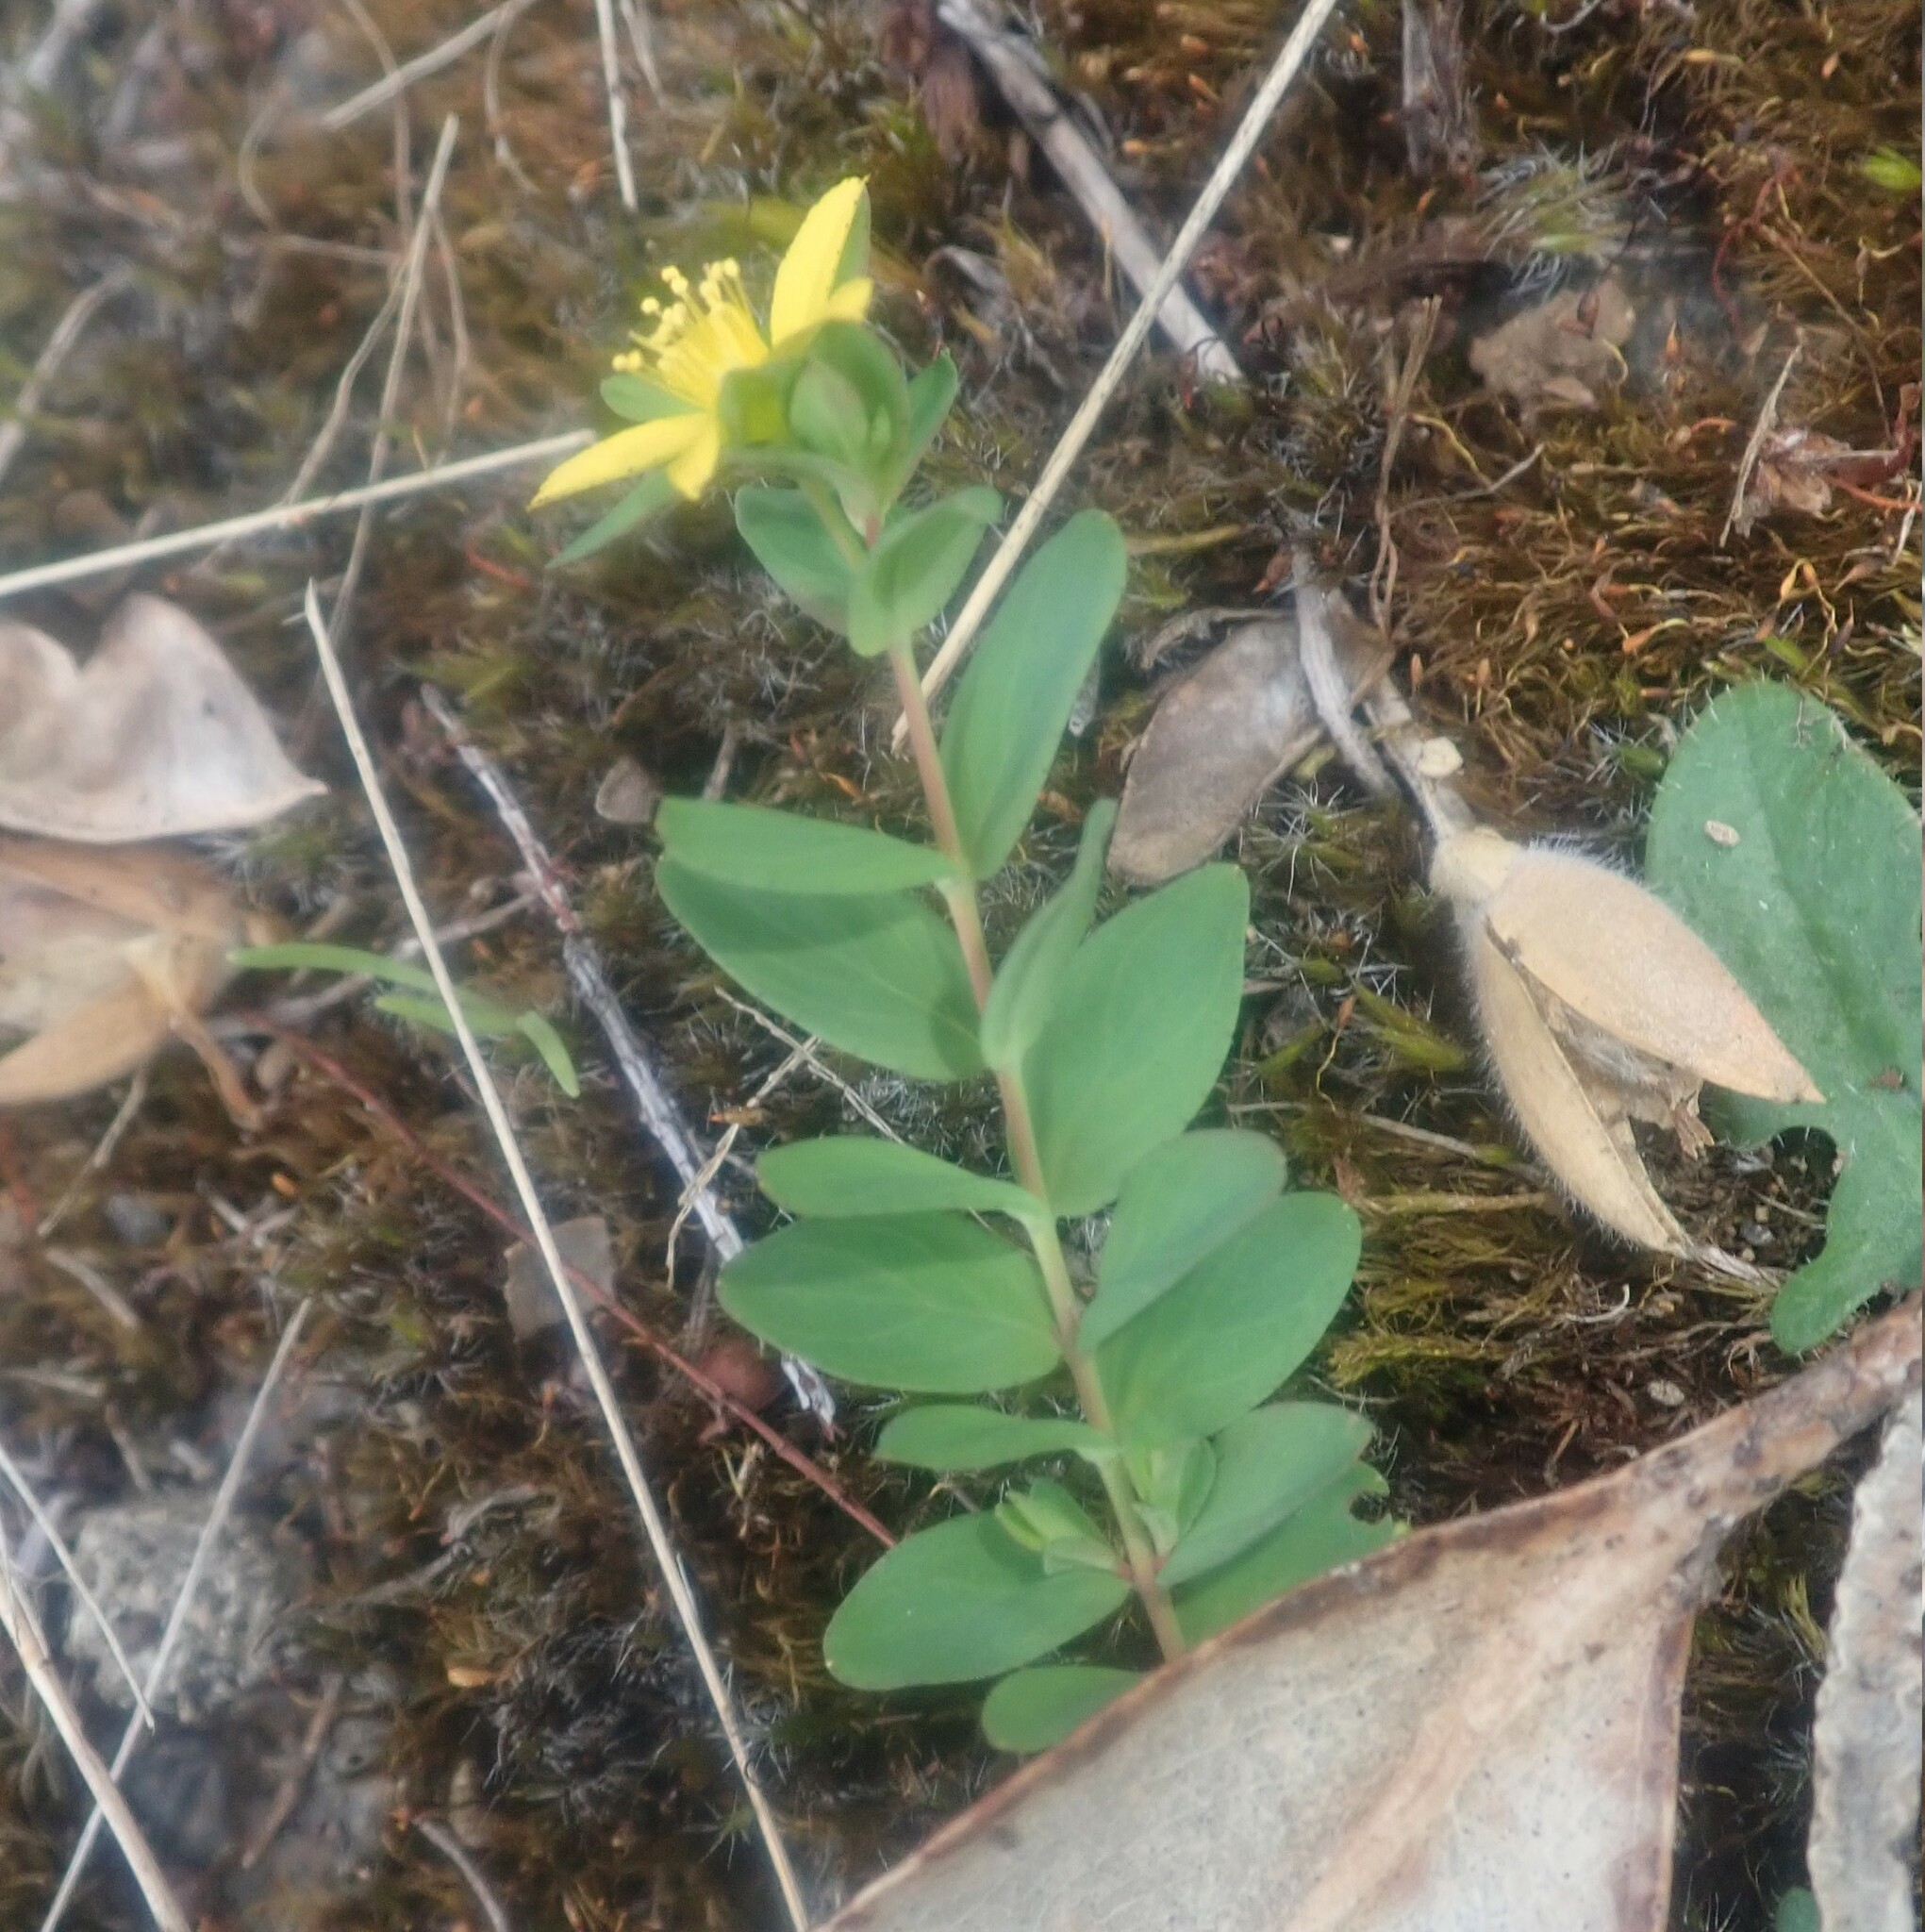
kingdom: Plantae
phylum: Tracheophyta
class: Magnoliopsida
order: Malpighiales
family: Hypericaceae
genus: Hypericum
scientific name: Hypericum humifusum
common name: Trailing st. john's-wort
